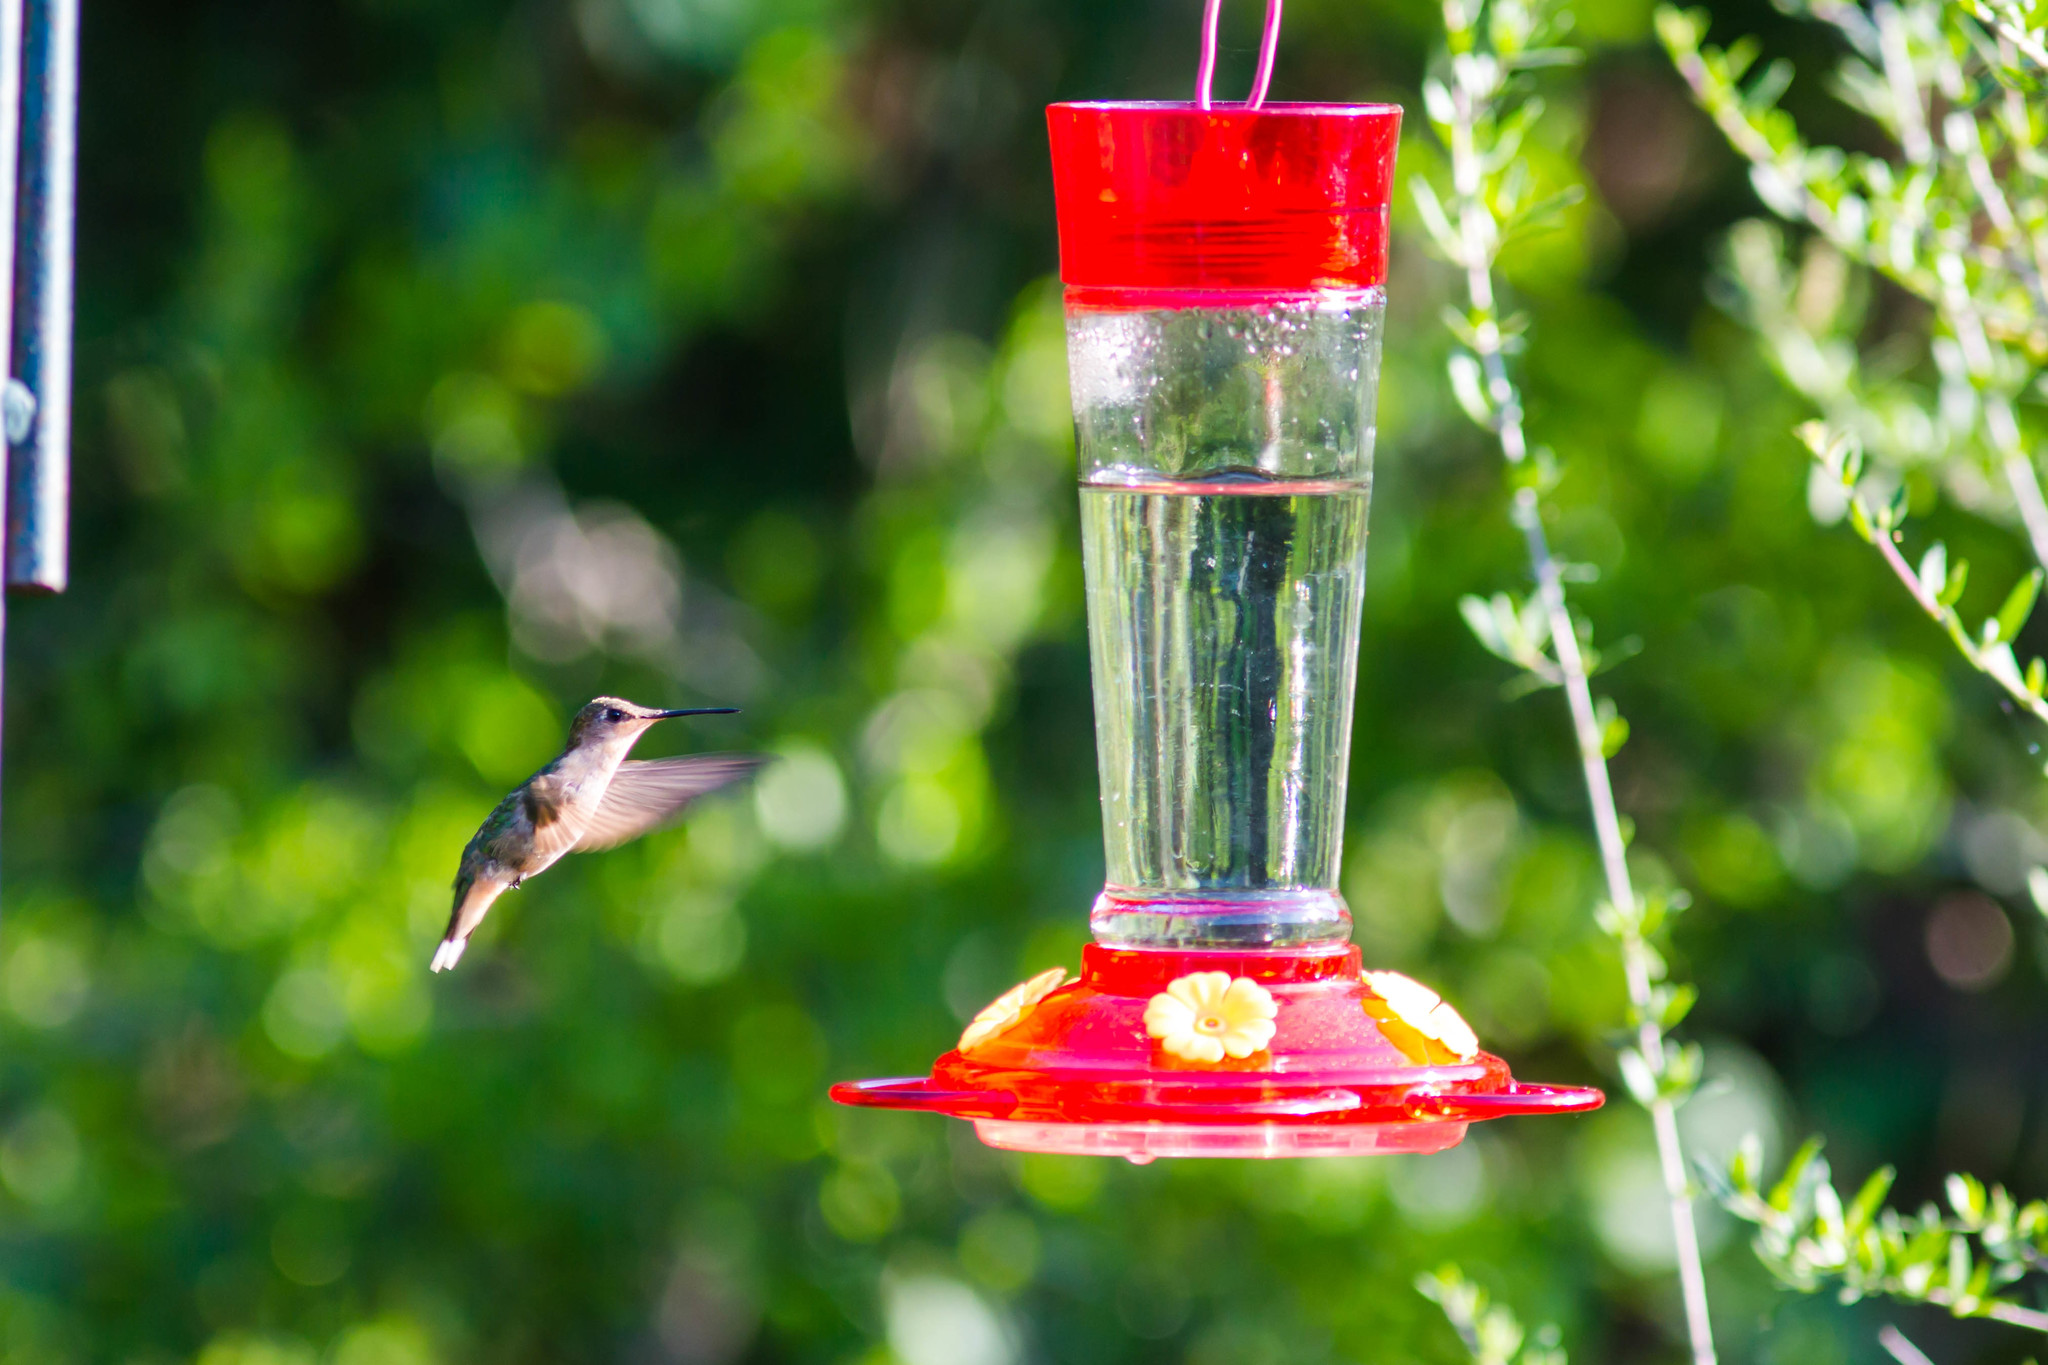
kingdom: Animalia
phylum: Chordata
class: Aves
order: Apodiformes
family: Trochilidae
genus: Archilochus
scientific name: Archilochus colubris
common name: Ruby-throated hummingbird
